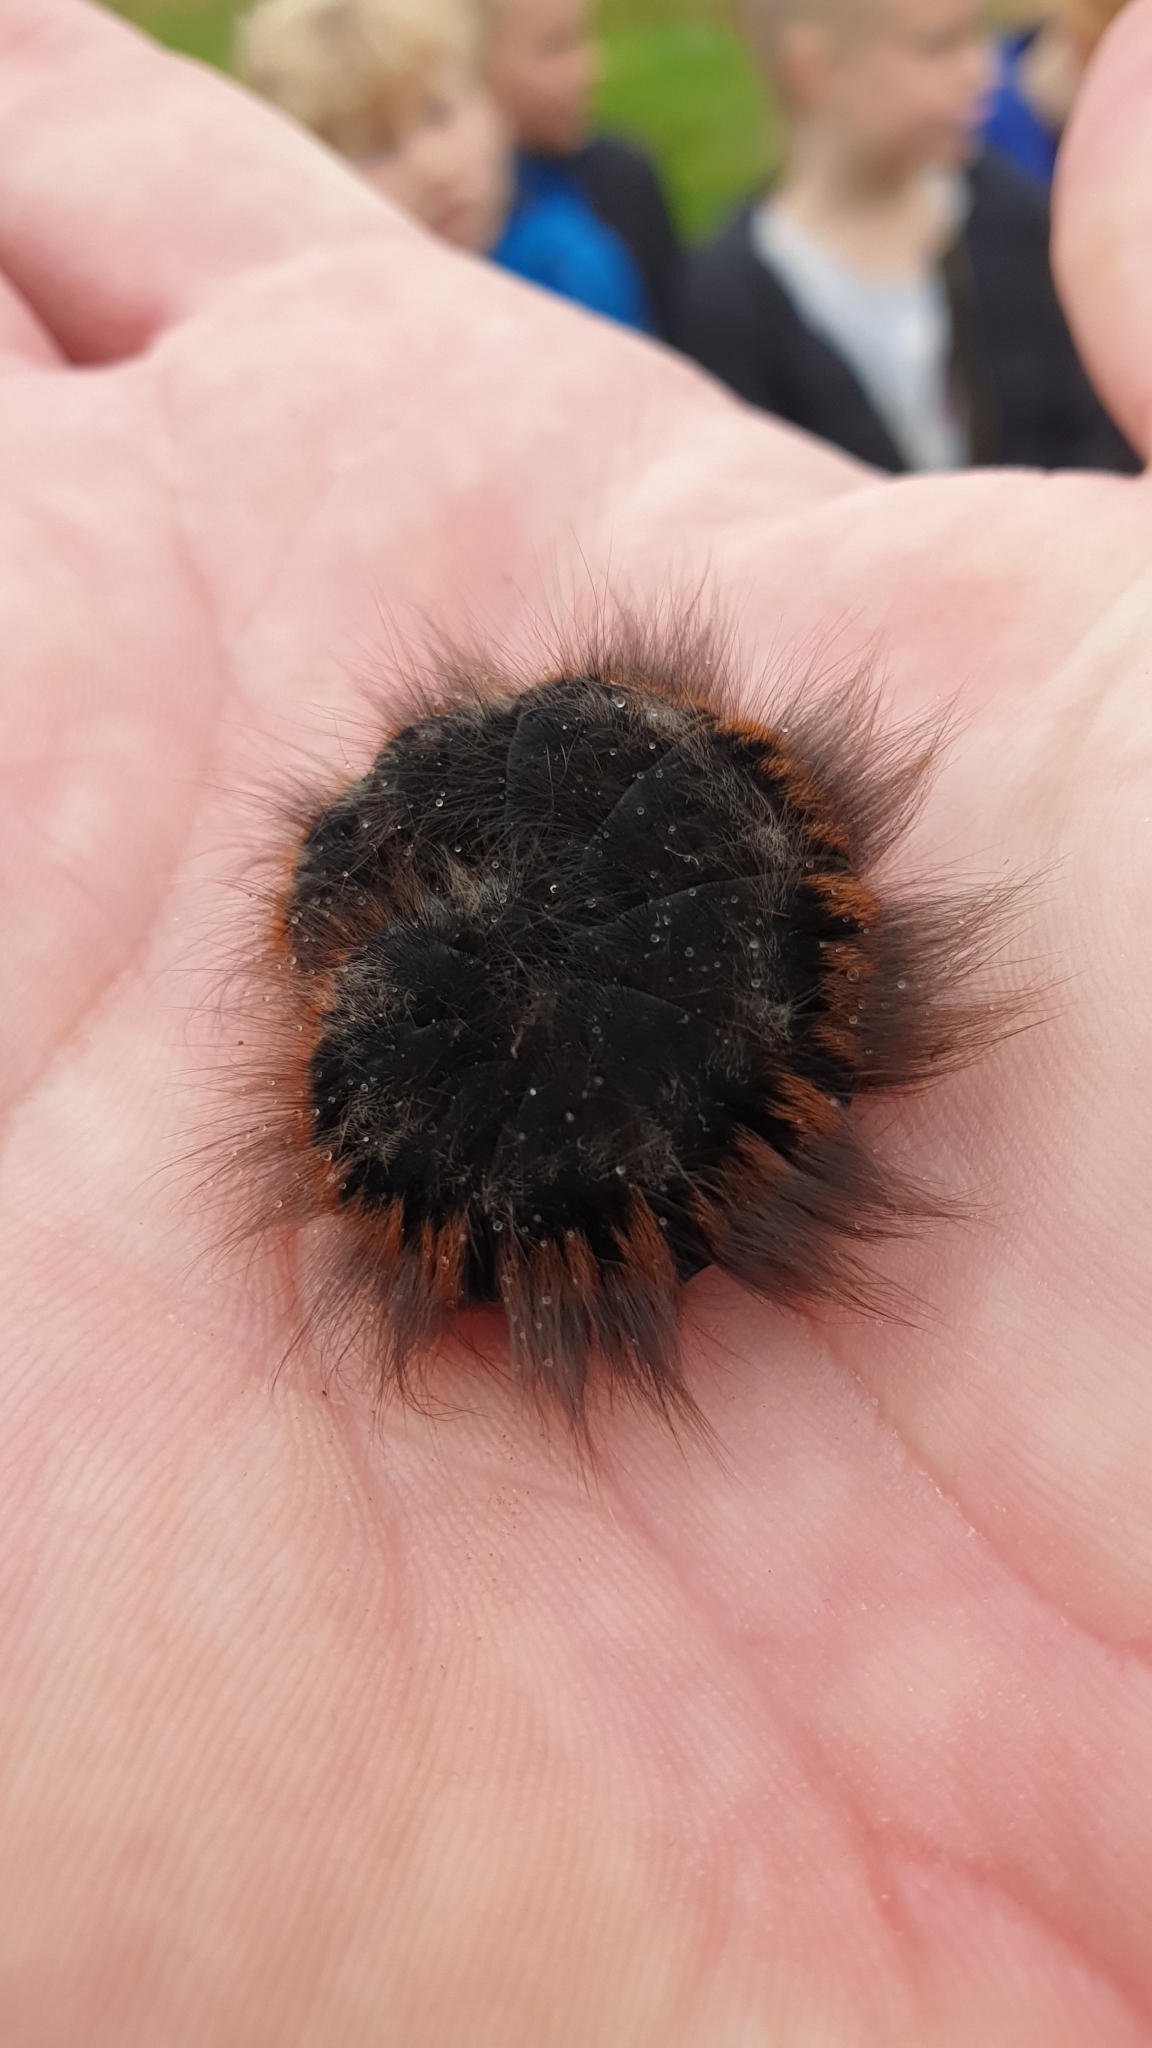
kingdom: Animalia
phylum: Arthropoda
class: Insecta
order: Lepidoptera
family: Lasiocampidae
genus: Macrothylacia
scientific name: Macrothylacia rubi
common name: Fox moth
